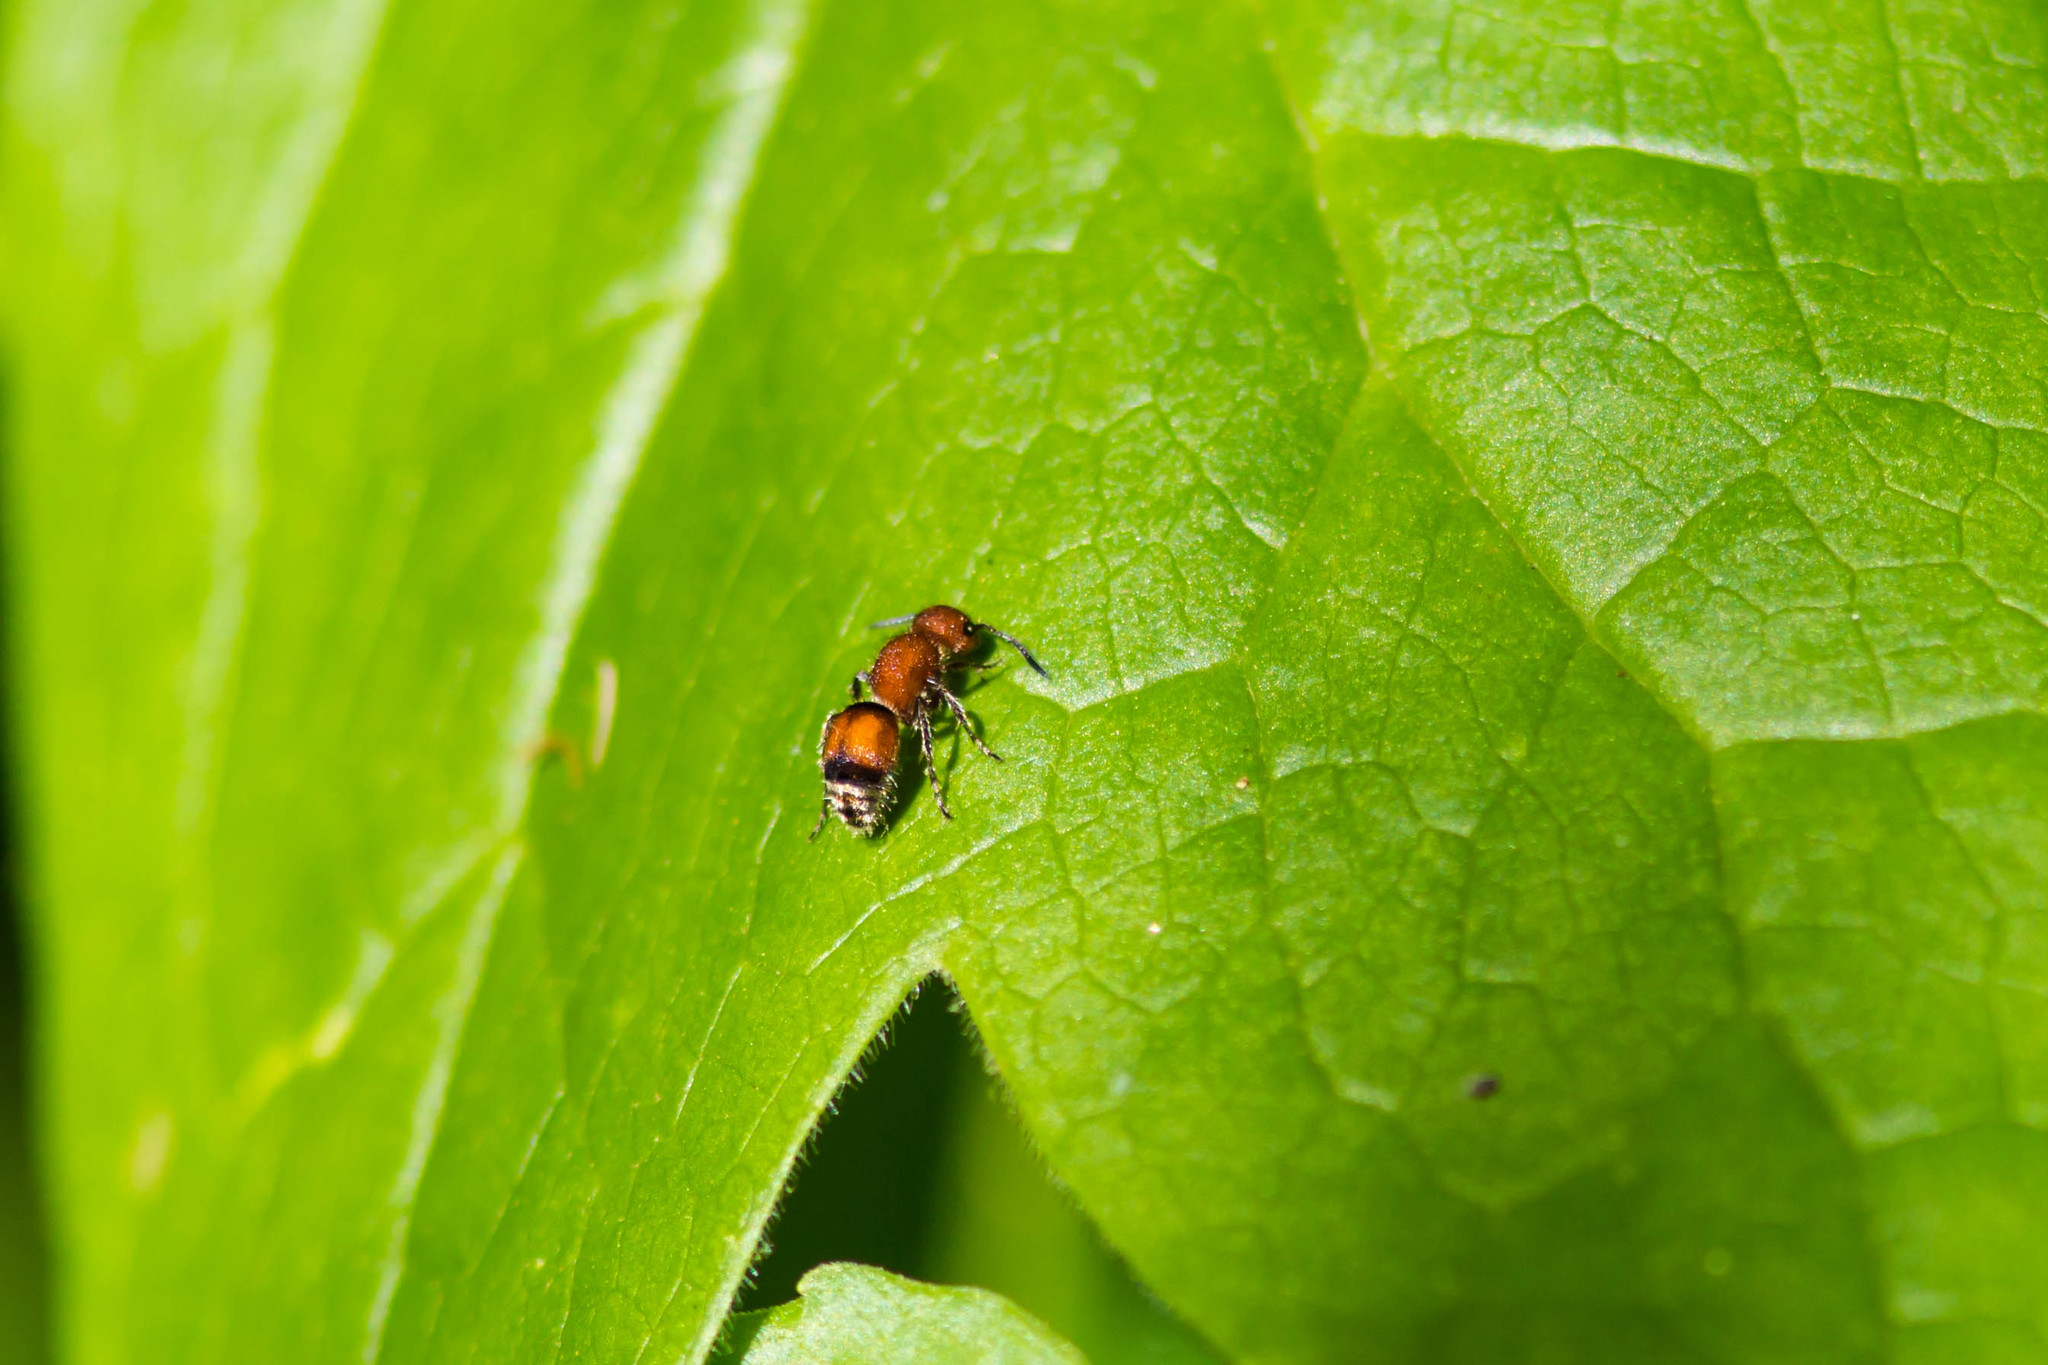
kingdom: Animalia
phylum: Arthropoda
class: Insecta
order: Hymenoptera
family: Mutillidae
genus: Pseudomethoca
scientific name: Pseudomethoca
